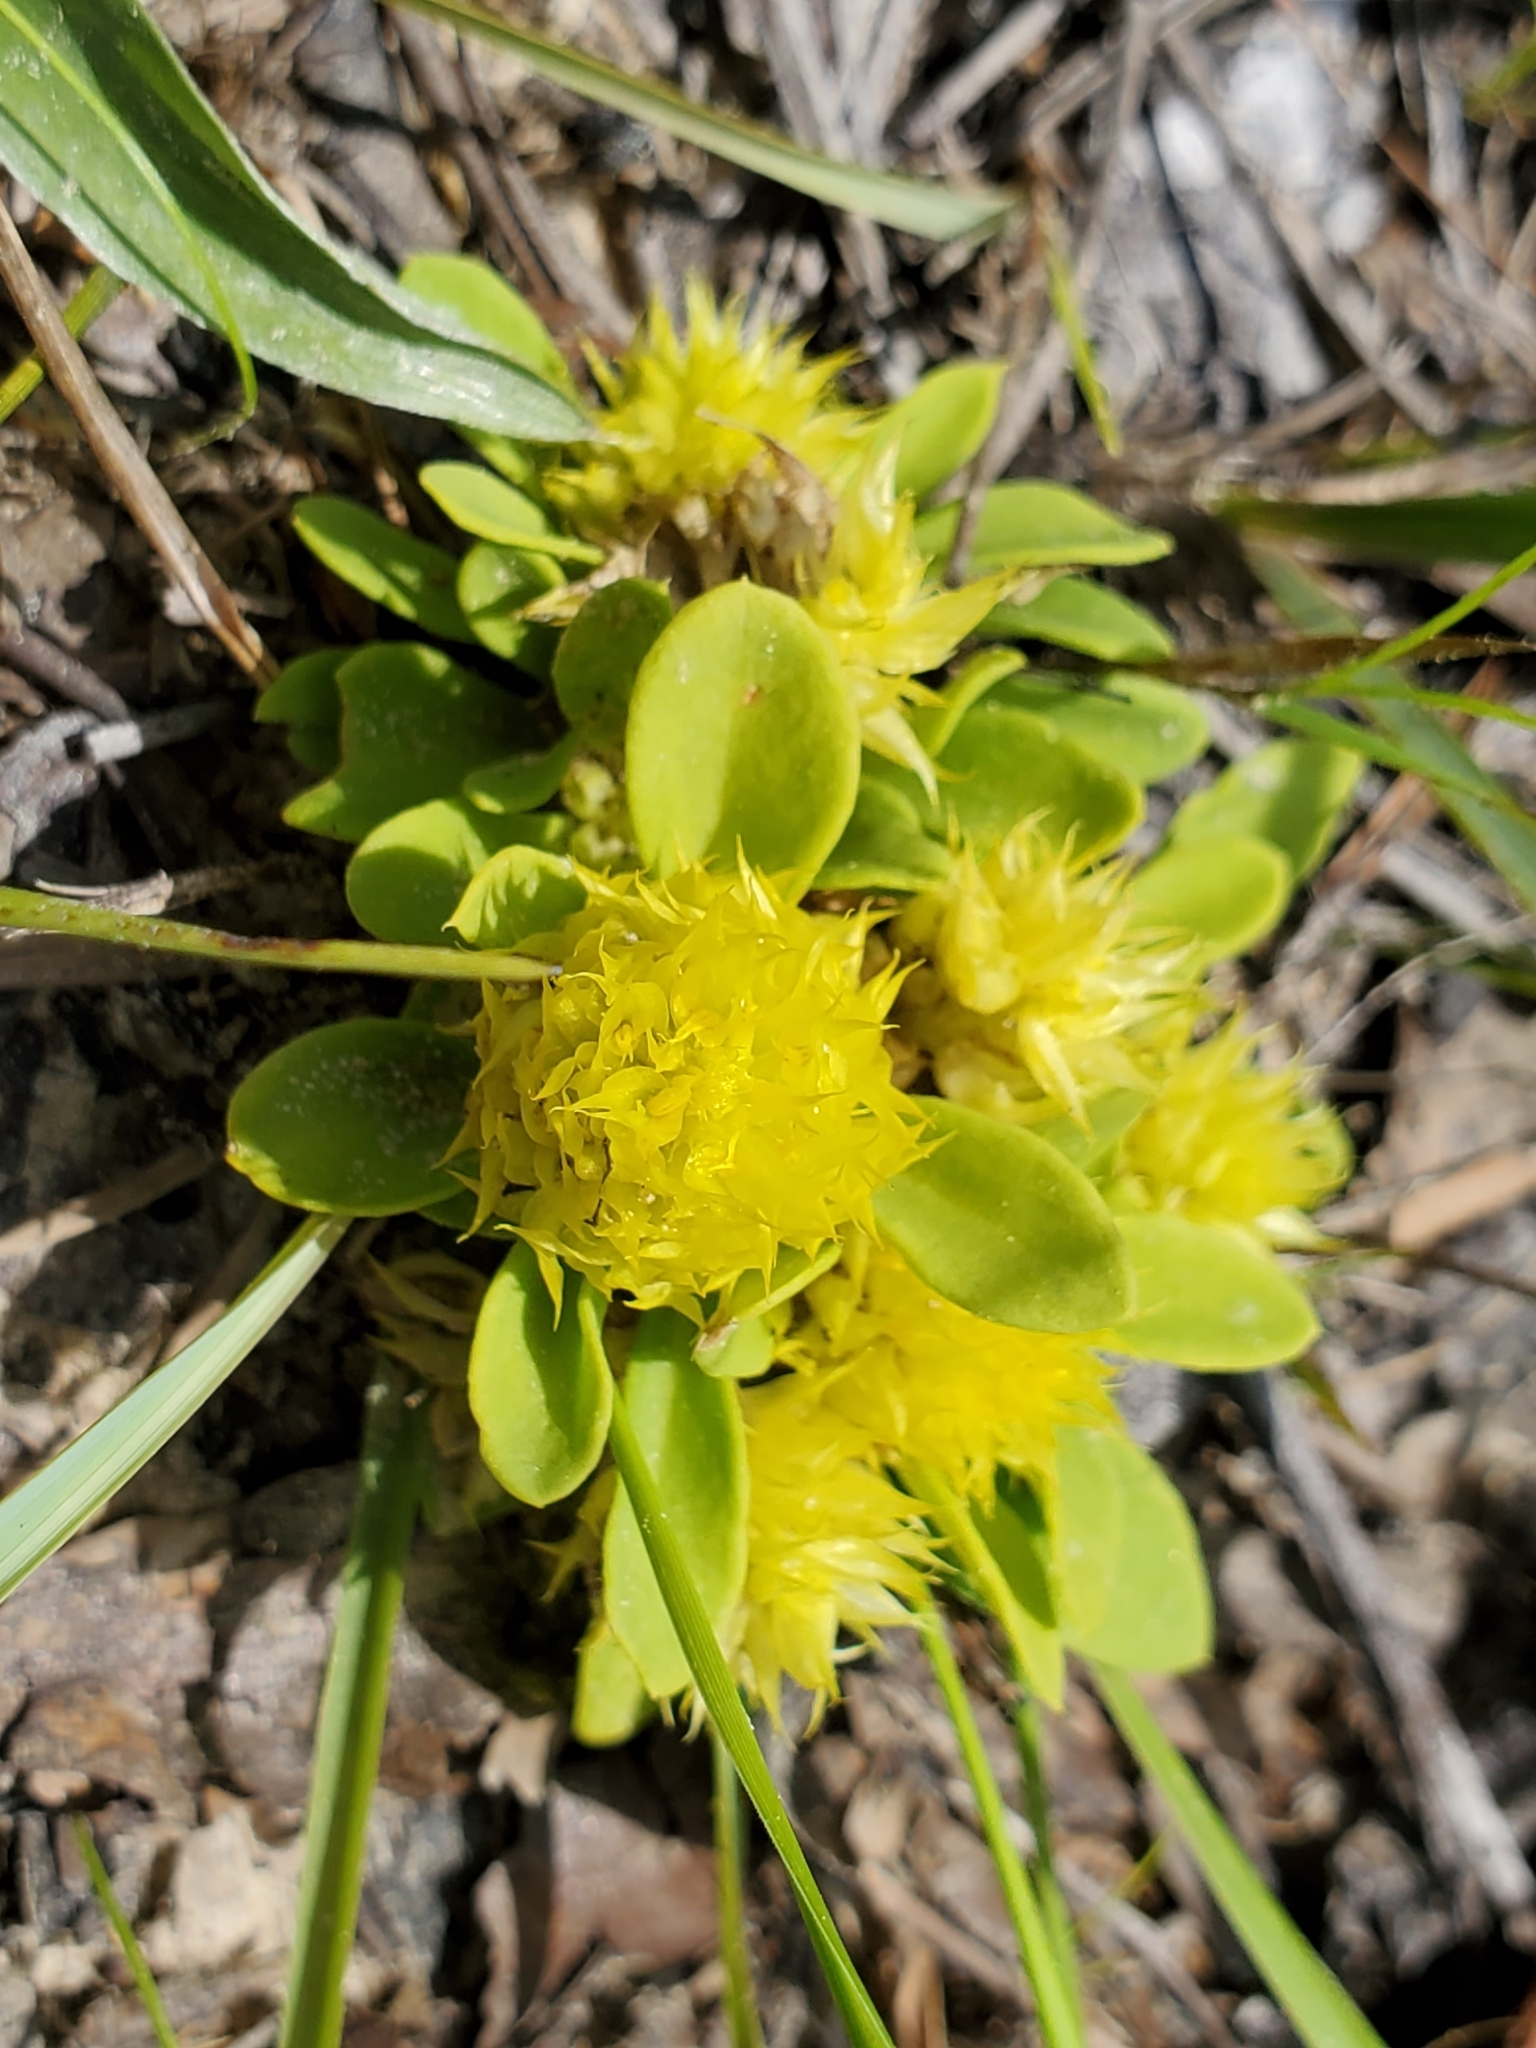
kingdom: Plantae
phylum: Tracheophyta
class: Magnoliopsida
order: Fabales
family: Polygalaceae
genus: Polygala
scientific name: Polygala nana
